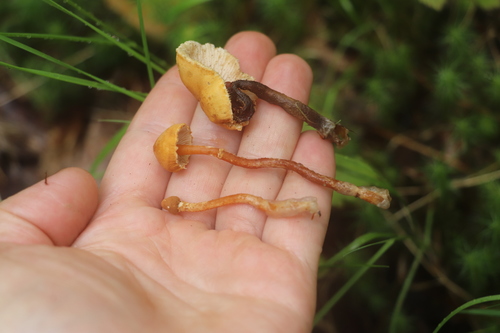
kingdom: Fungi
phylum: Basidiomycota
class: Agaricomycetes
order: Agaricales
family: Tricholomataceae
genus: Cystoderma
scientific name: Cystoderma
